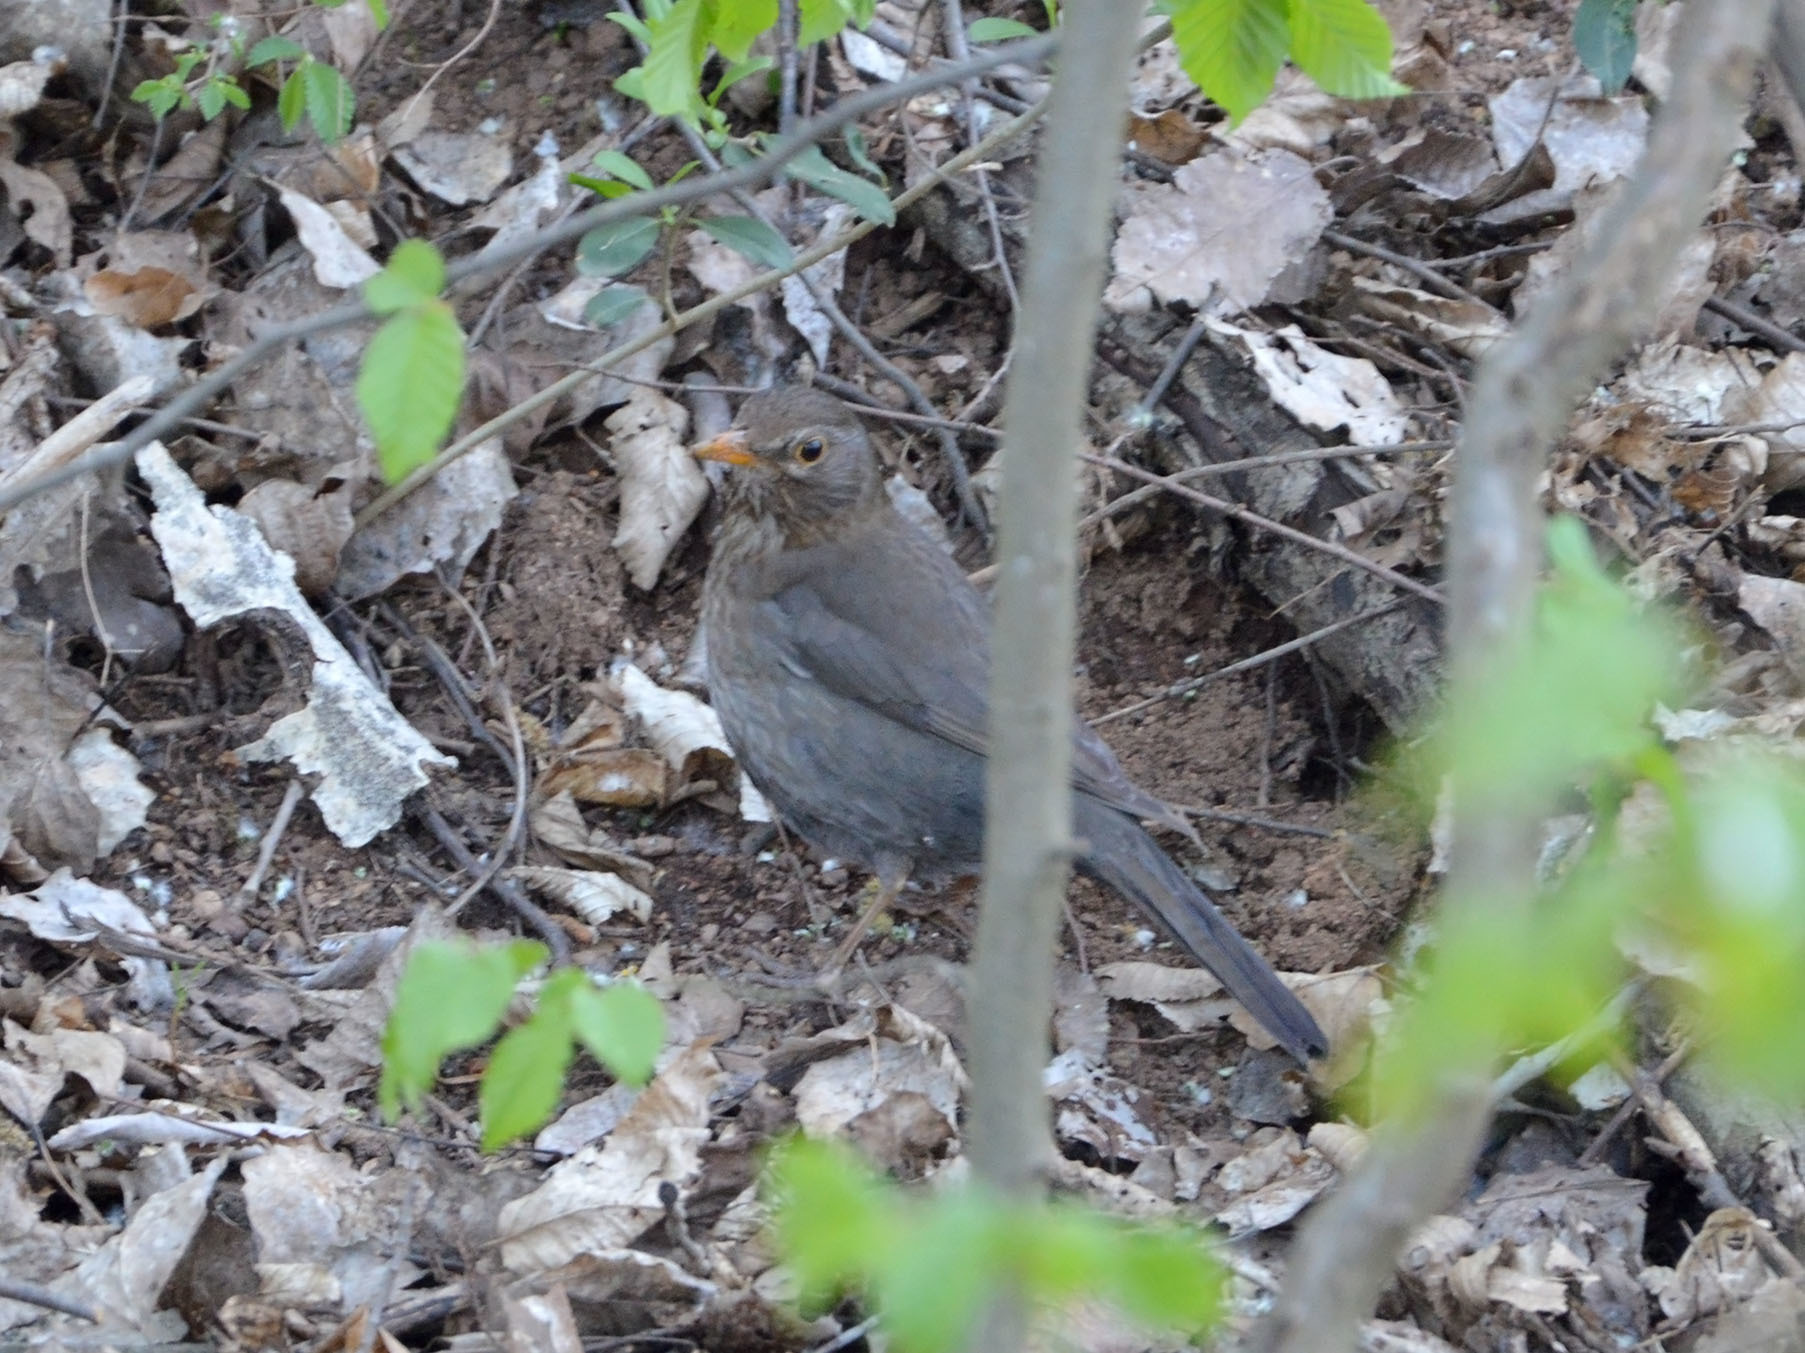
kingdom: Animalia
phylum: Chordata
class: Aves
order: Passeriformes
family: Turdidae
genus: Turdus
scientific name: Turdus merula
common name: Common blackbird
